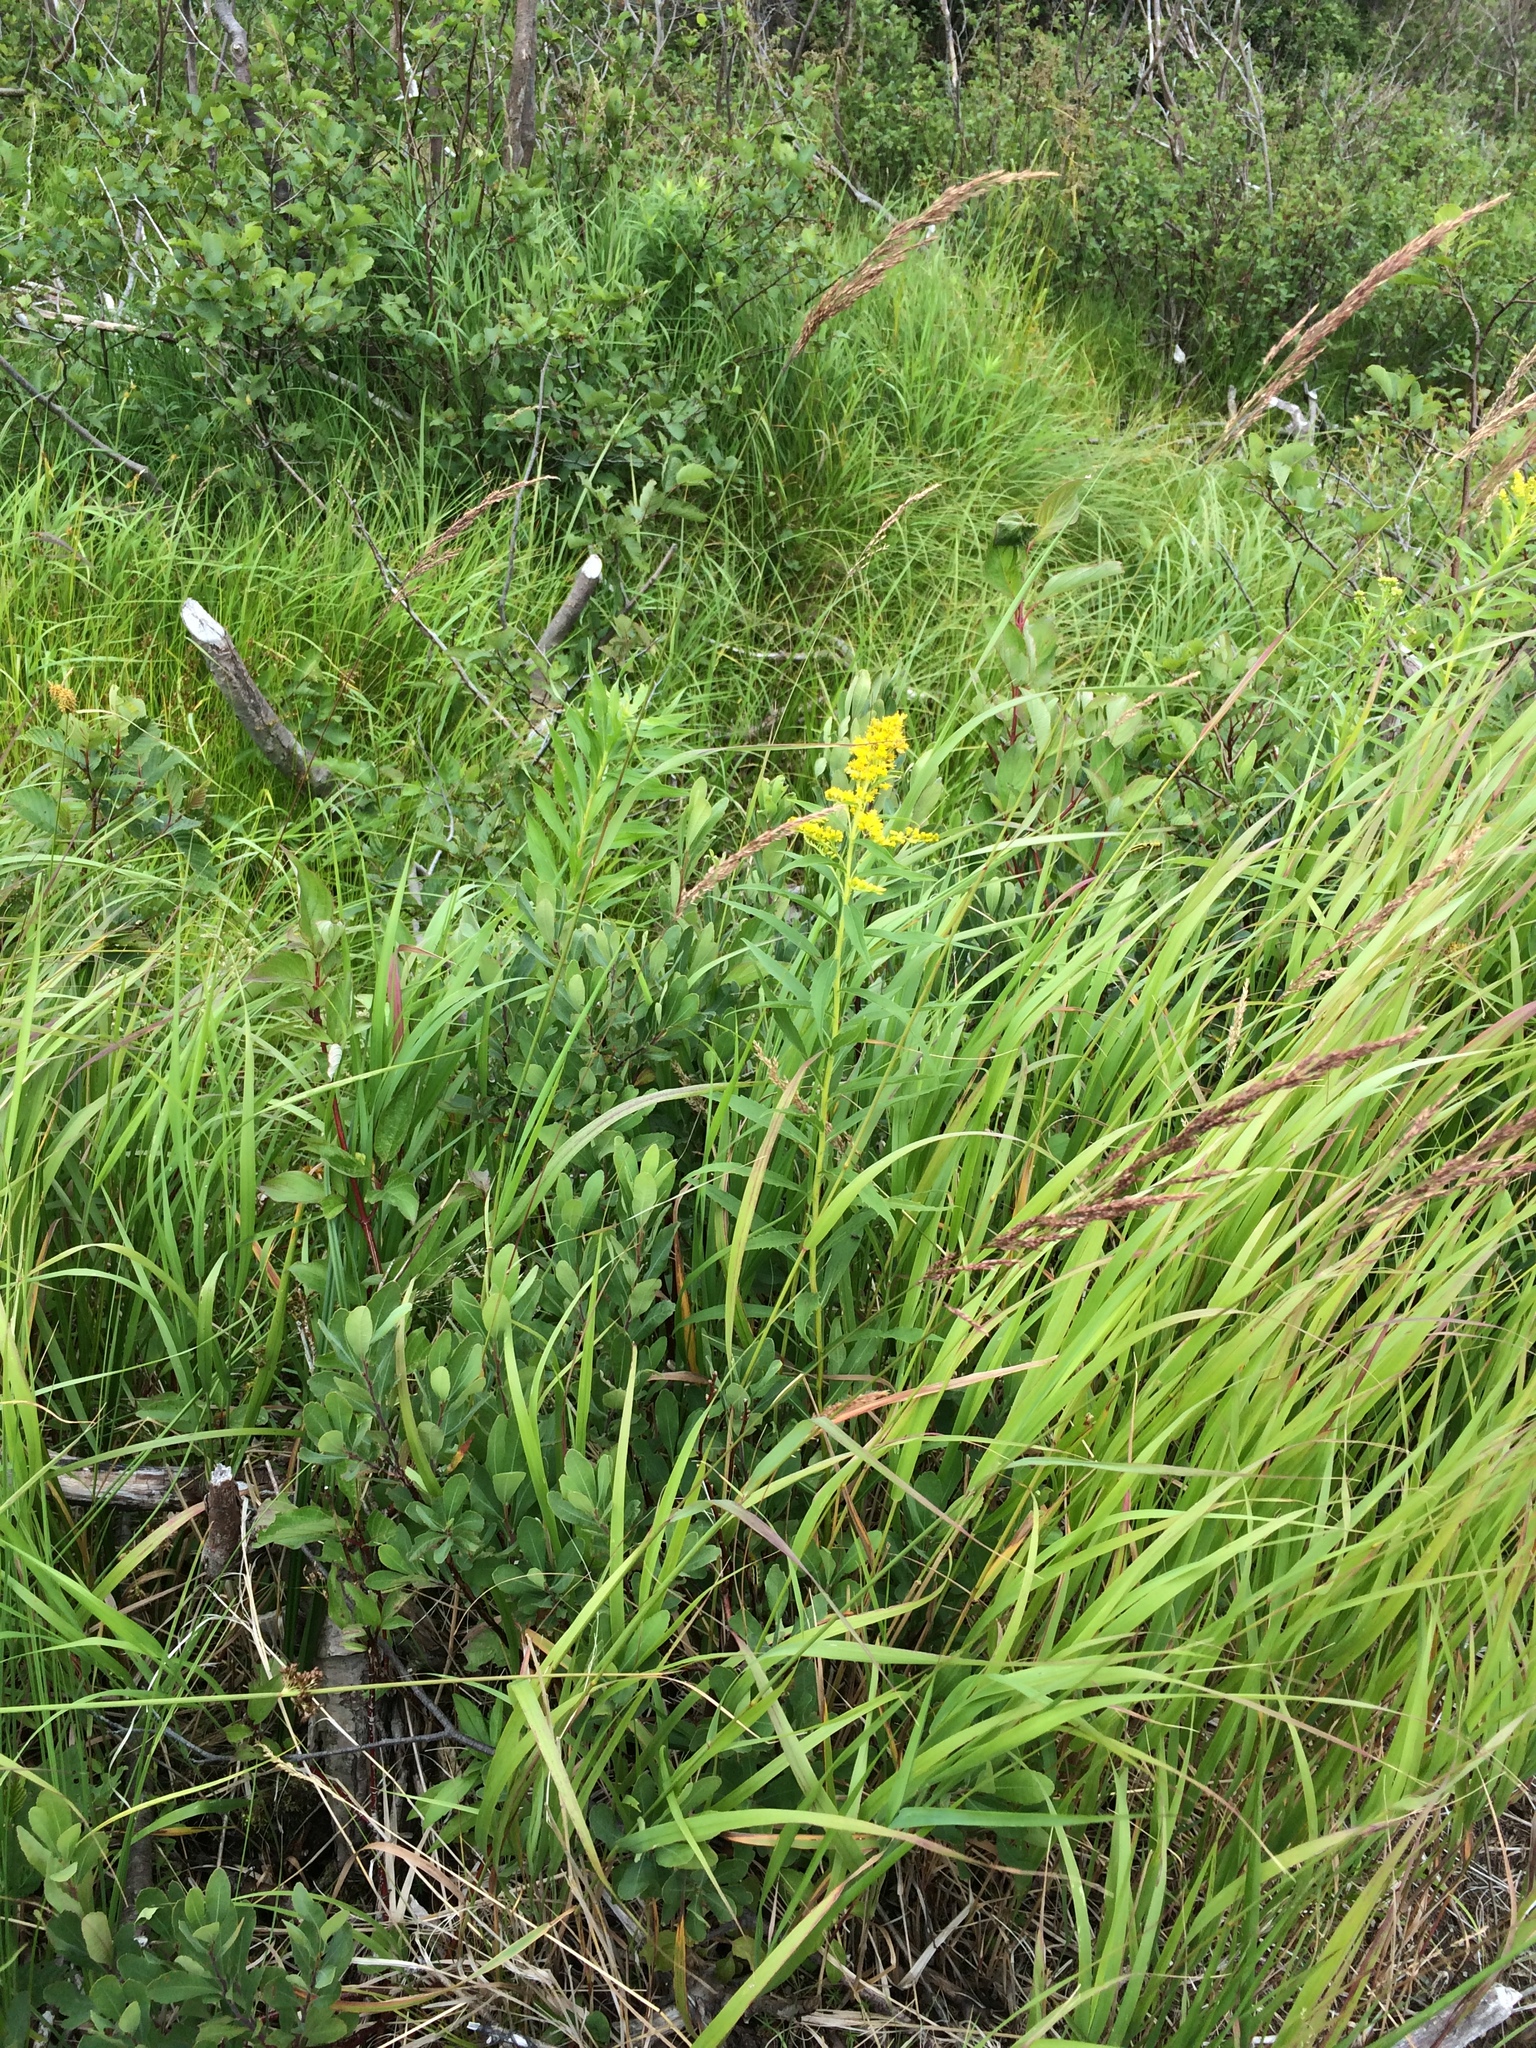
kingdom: Plantae
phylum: Tracheophyta
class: Magnoliopsida
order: Asterales
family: Asteraceae
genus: Solidago
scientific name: Solidago canadensis
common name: Canada goldenrod
